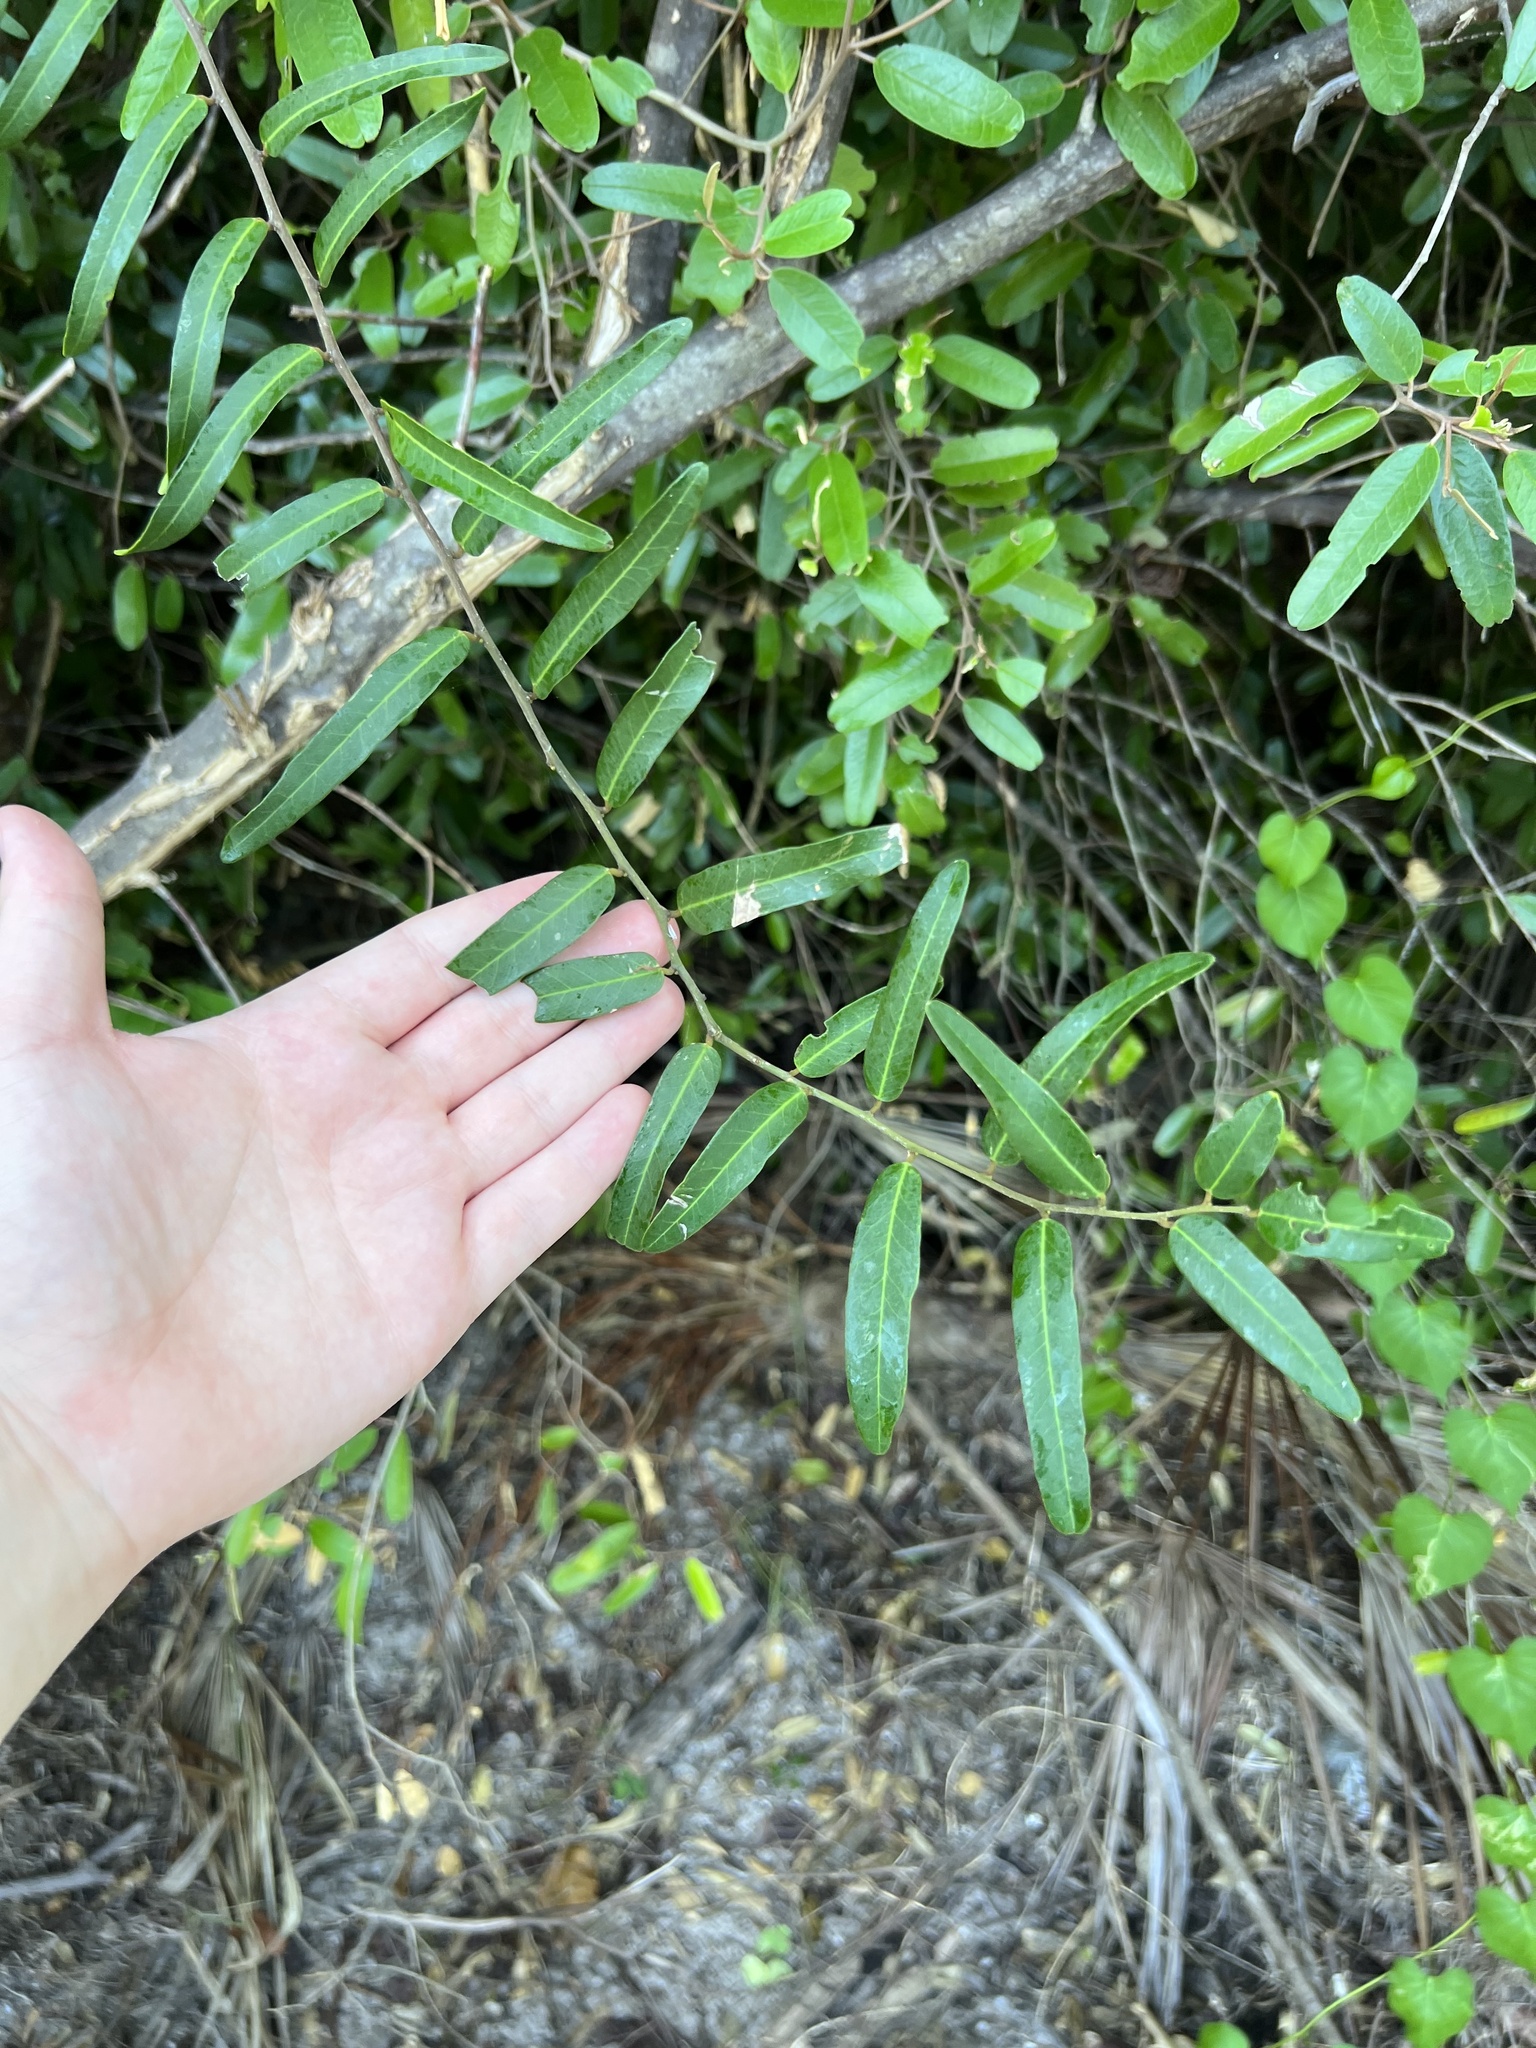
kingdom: Plantae
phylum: Tracheophyta
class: Magnoliopsida
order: Brassicales
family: Capparaceae
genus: Cynophalla
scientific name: Cynophalla flexuosa
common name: Capertree
